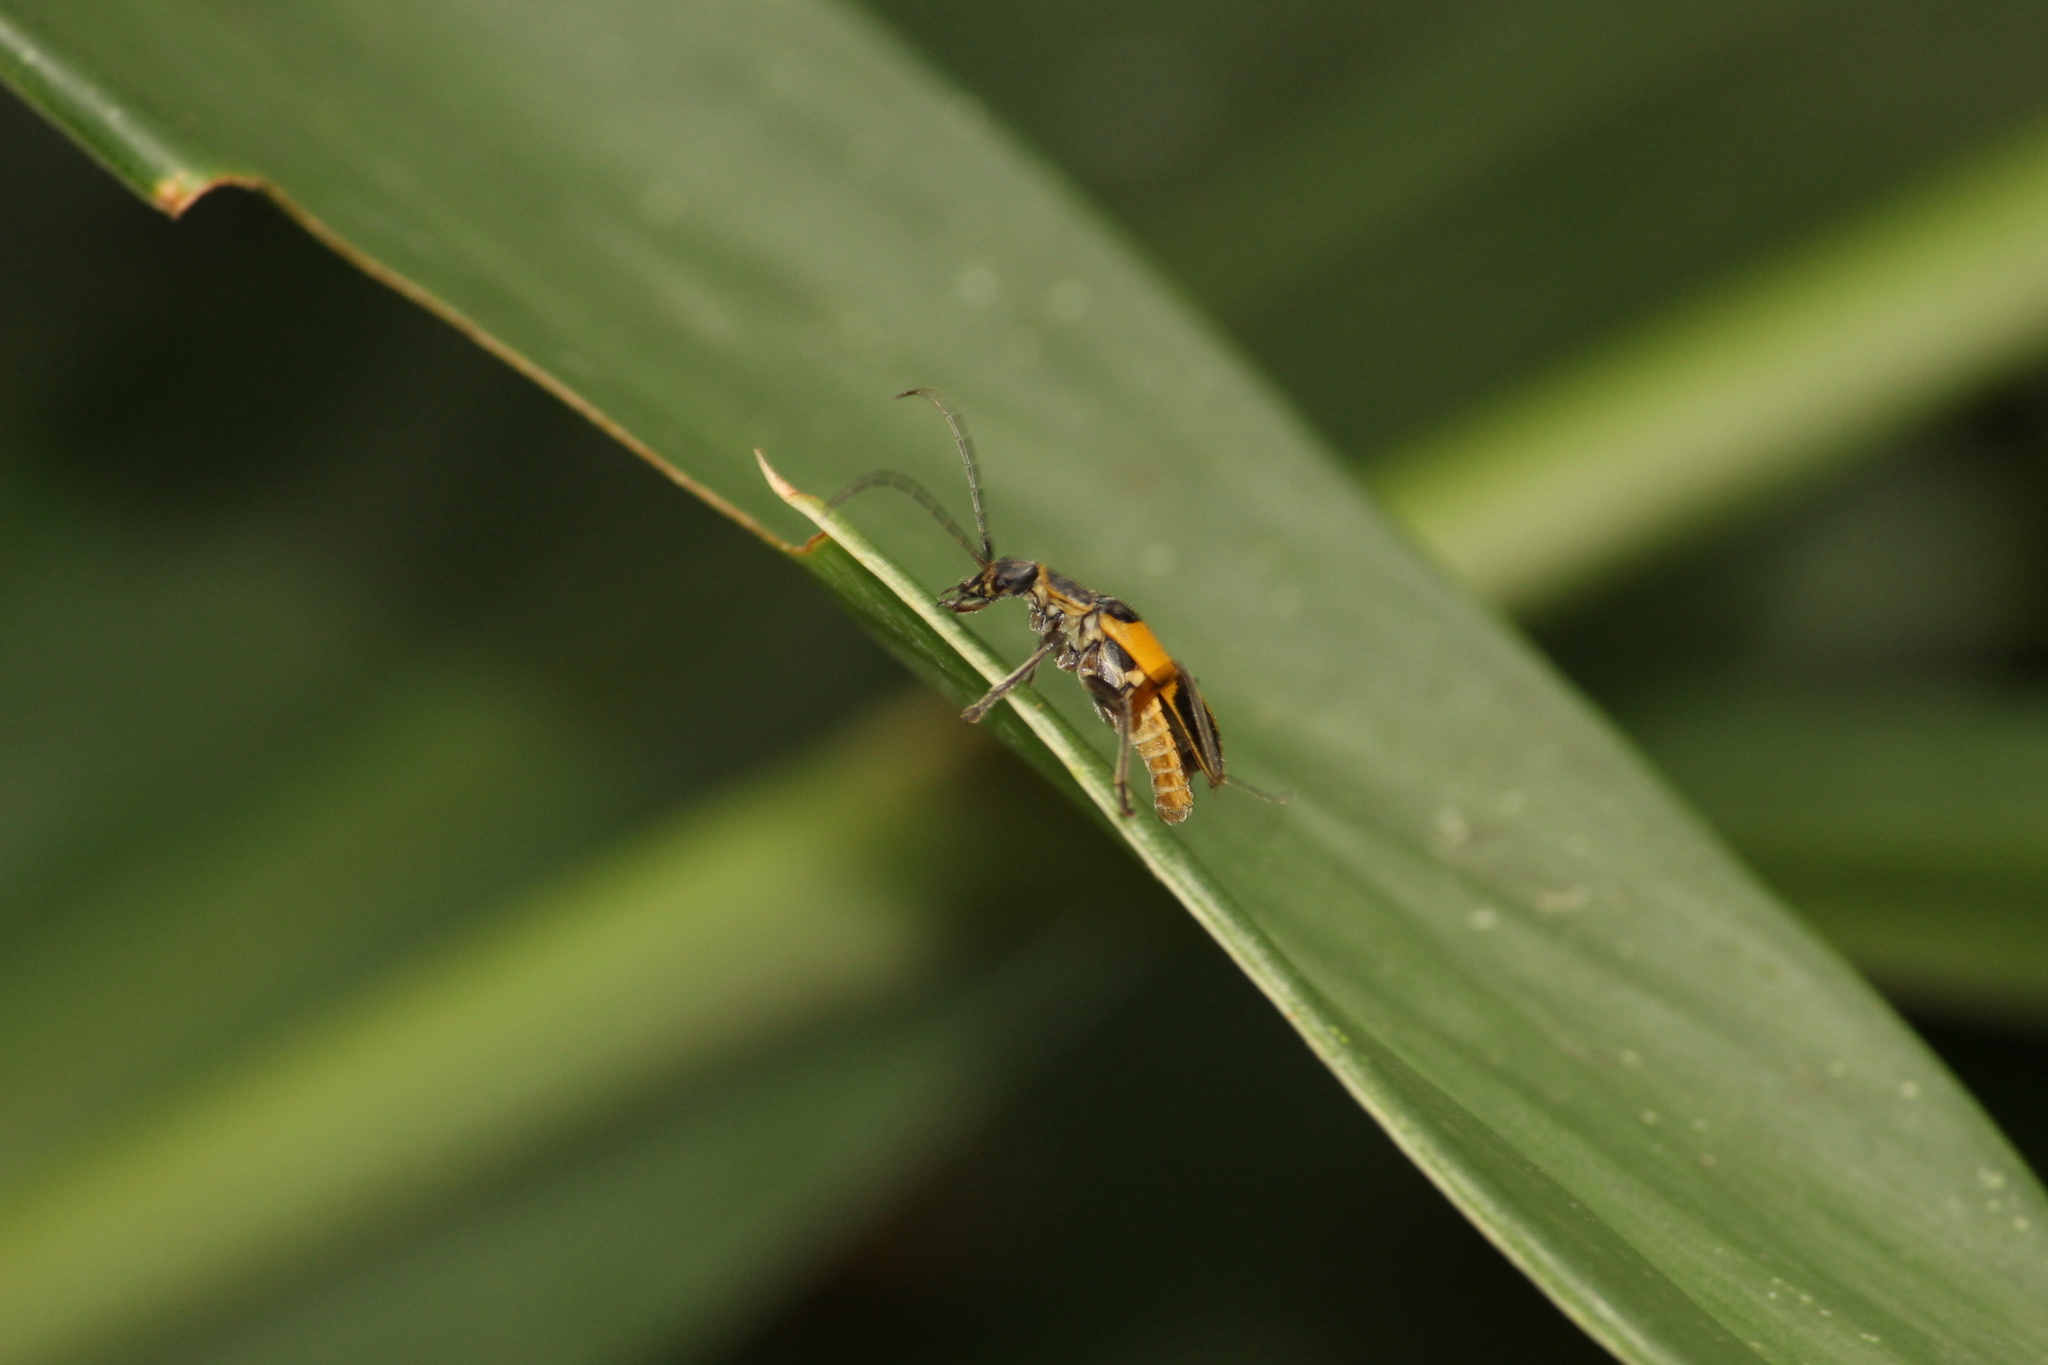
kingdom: Animalia
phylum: Arthropoda
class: Insecta
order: Coleoptera
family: Cantharidae
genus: Chauliognathus
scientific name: Chauliognathus
